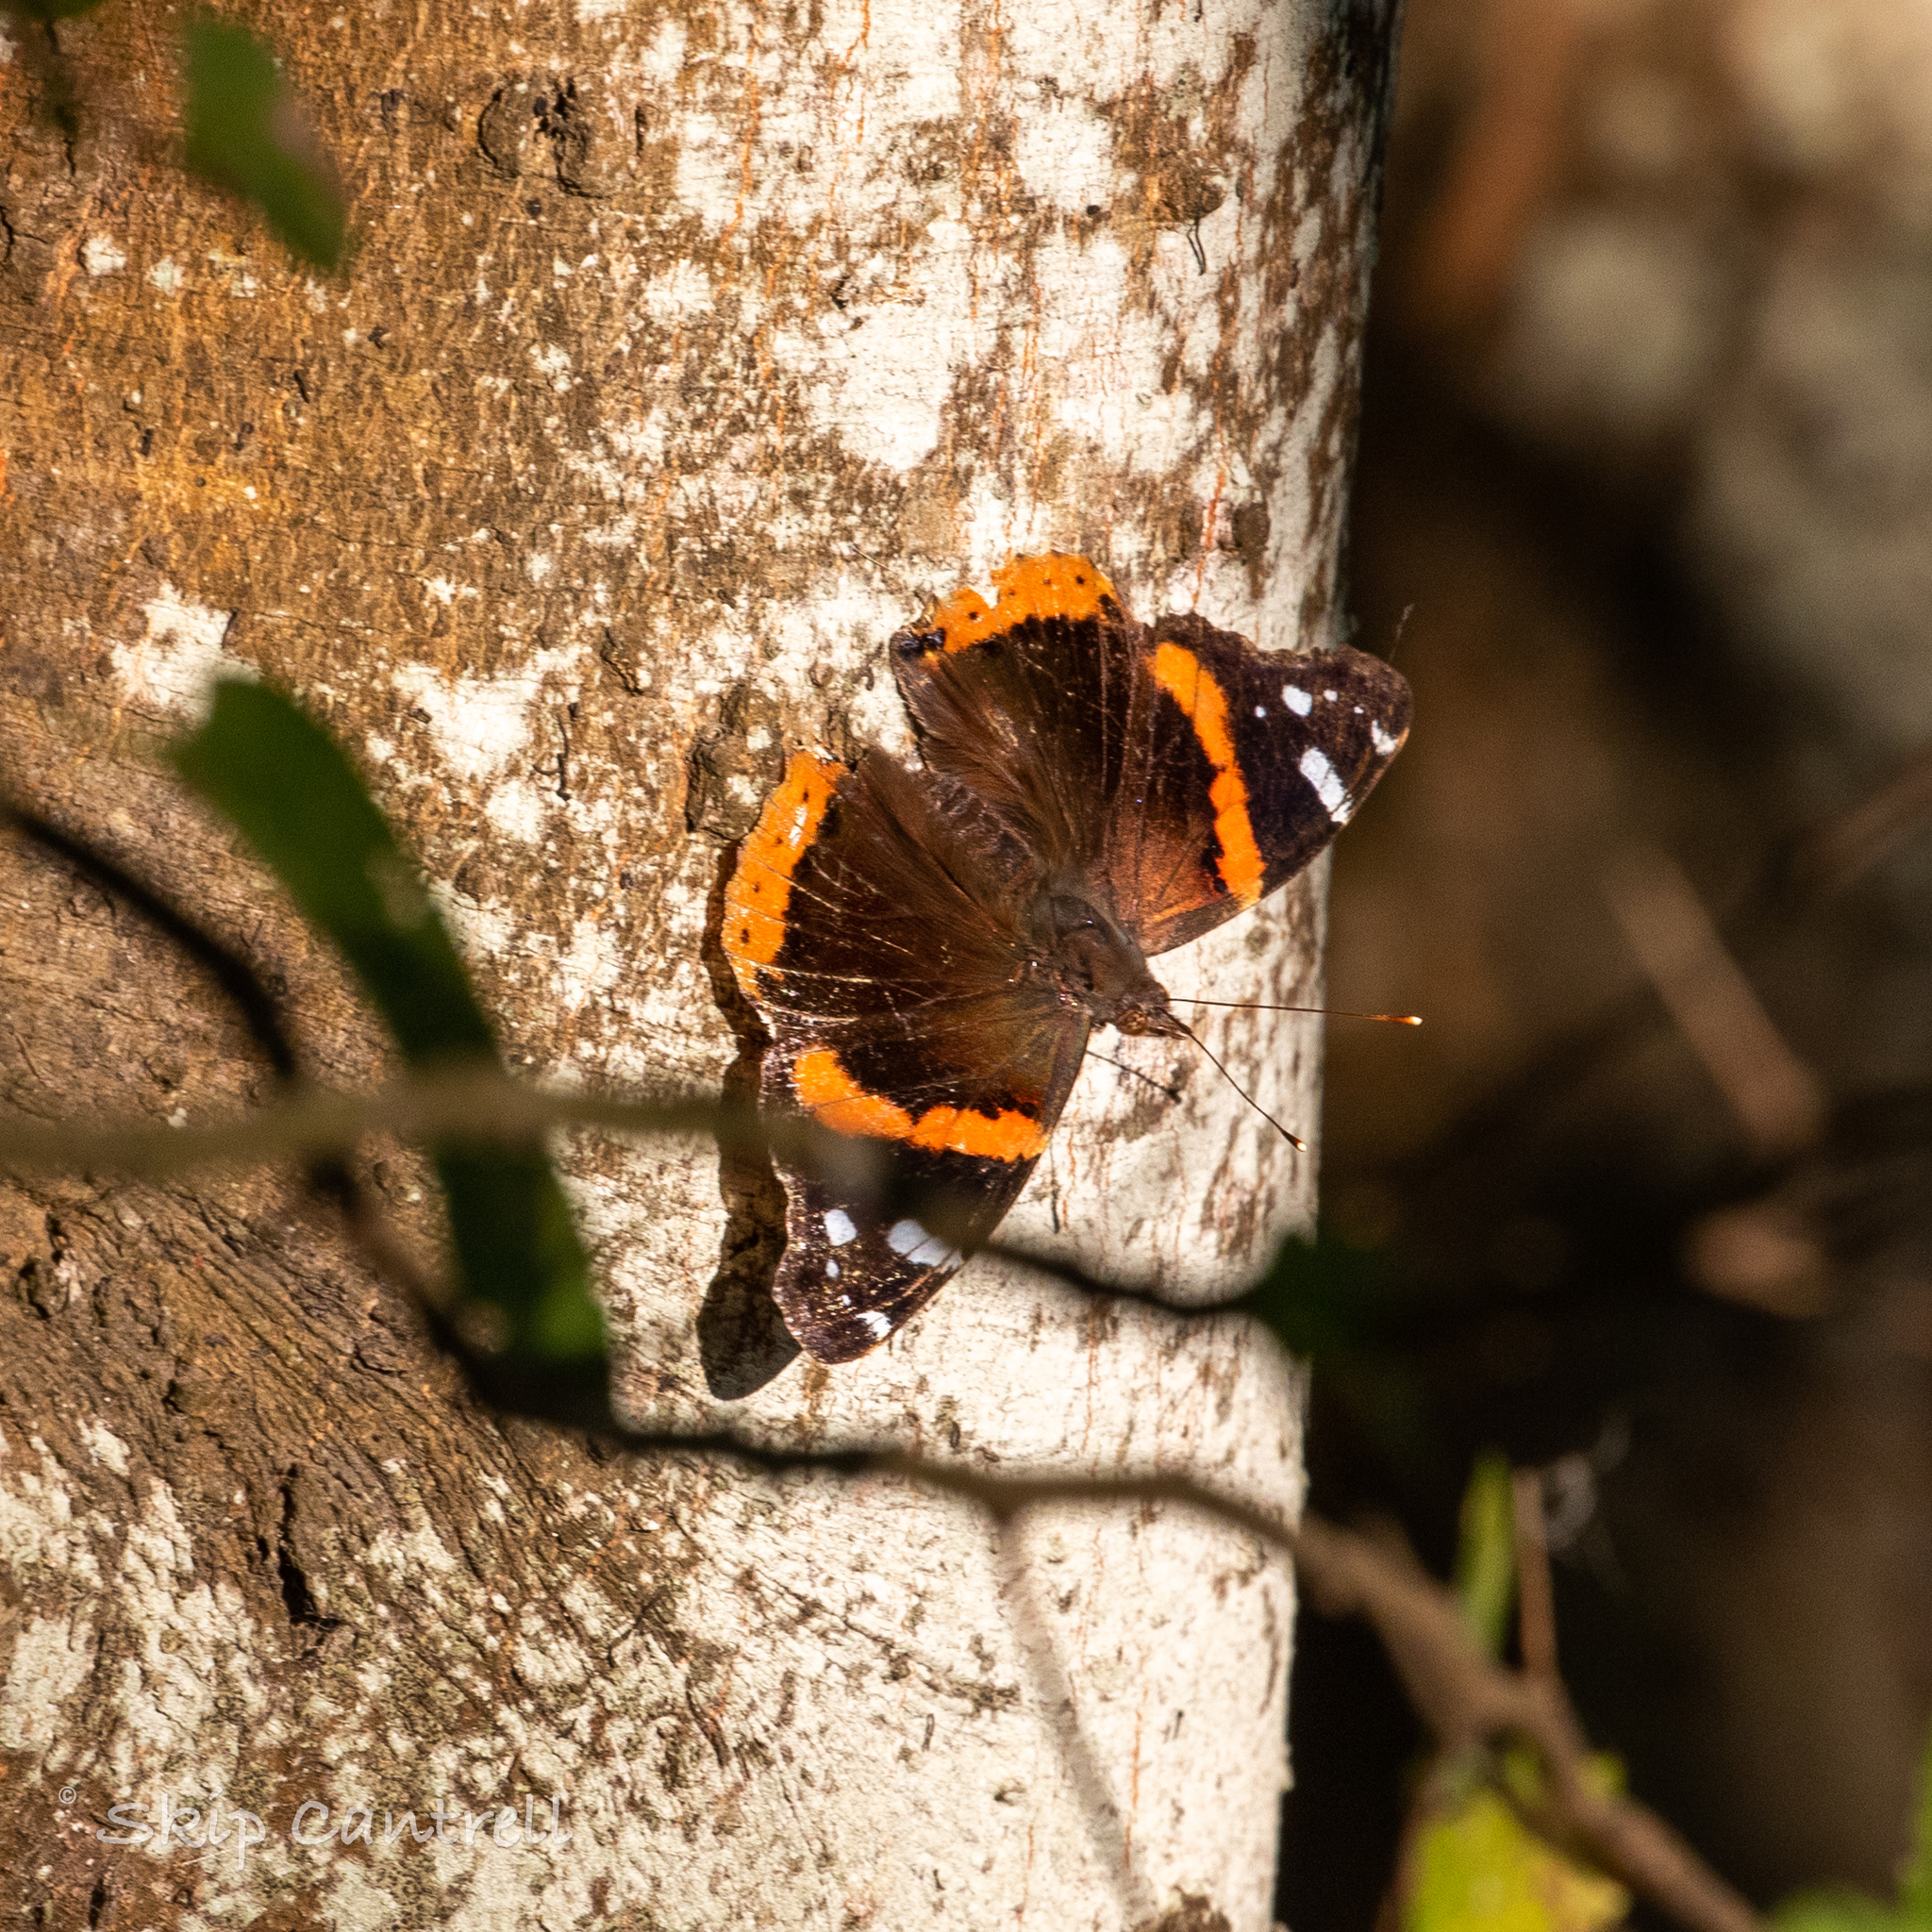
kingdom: Animalia
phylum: Arthropoda
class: Insecta
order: Lepidoptera
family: Nymphalidae
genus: Vanessa
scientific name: Vanessa atalanta
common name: Red admiral
